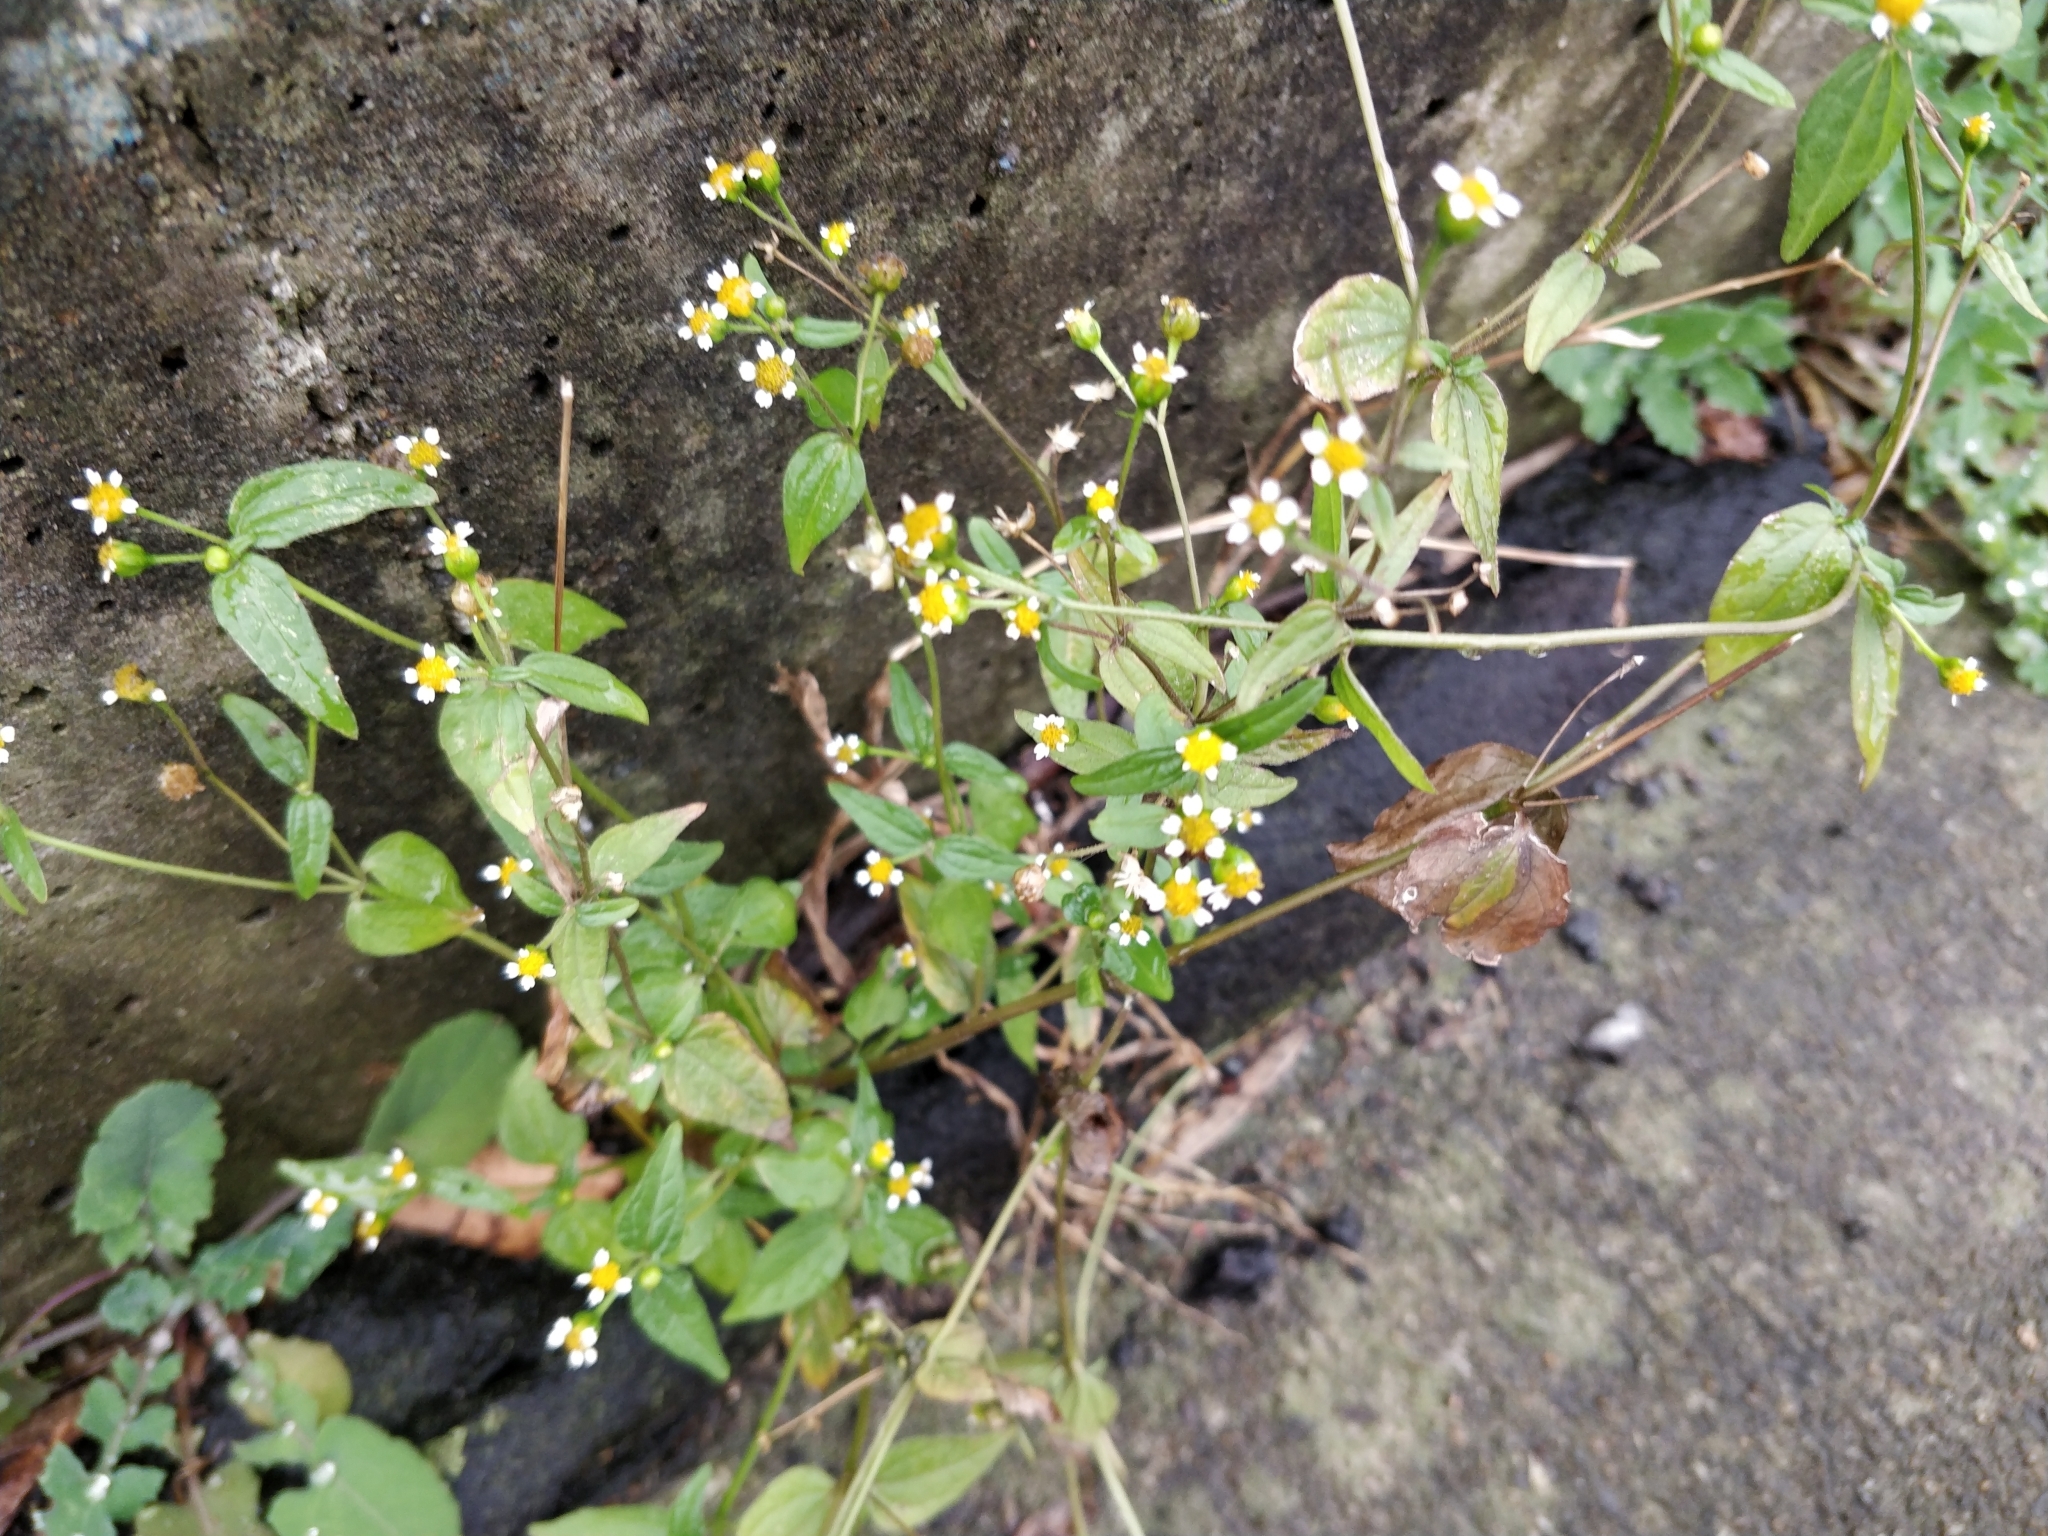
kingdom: Plantae
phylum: Tracheophyta
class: Magnoliopsida
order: Asterales
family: Asteraceae
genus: Galinsoga
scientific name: Galinsoga parviflora
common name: Gallant soldier
